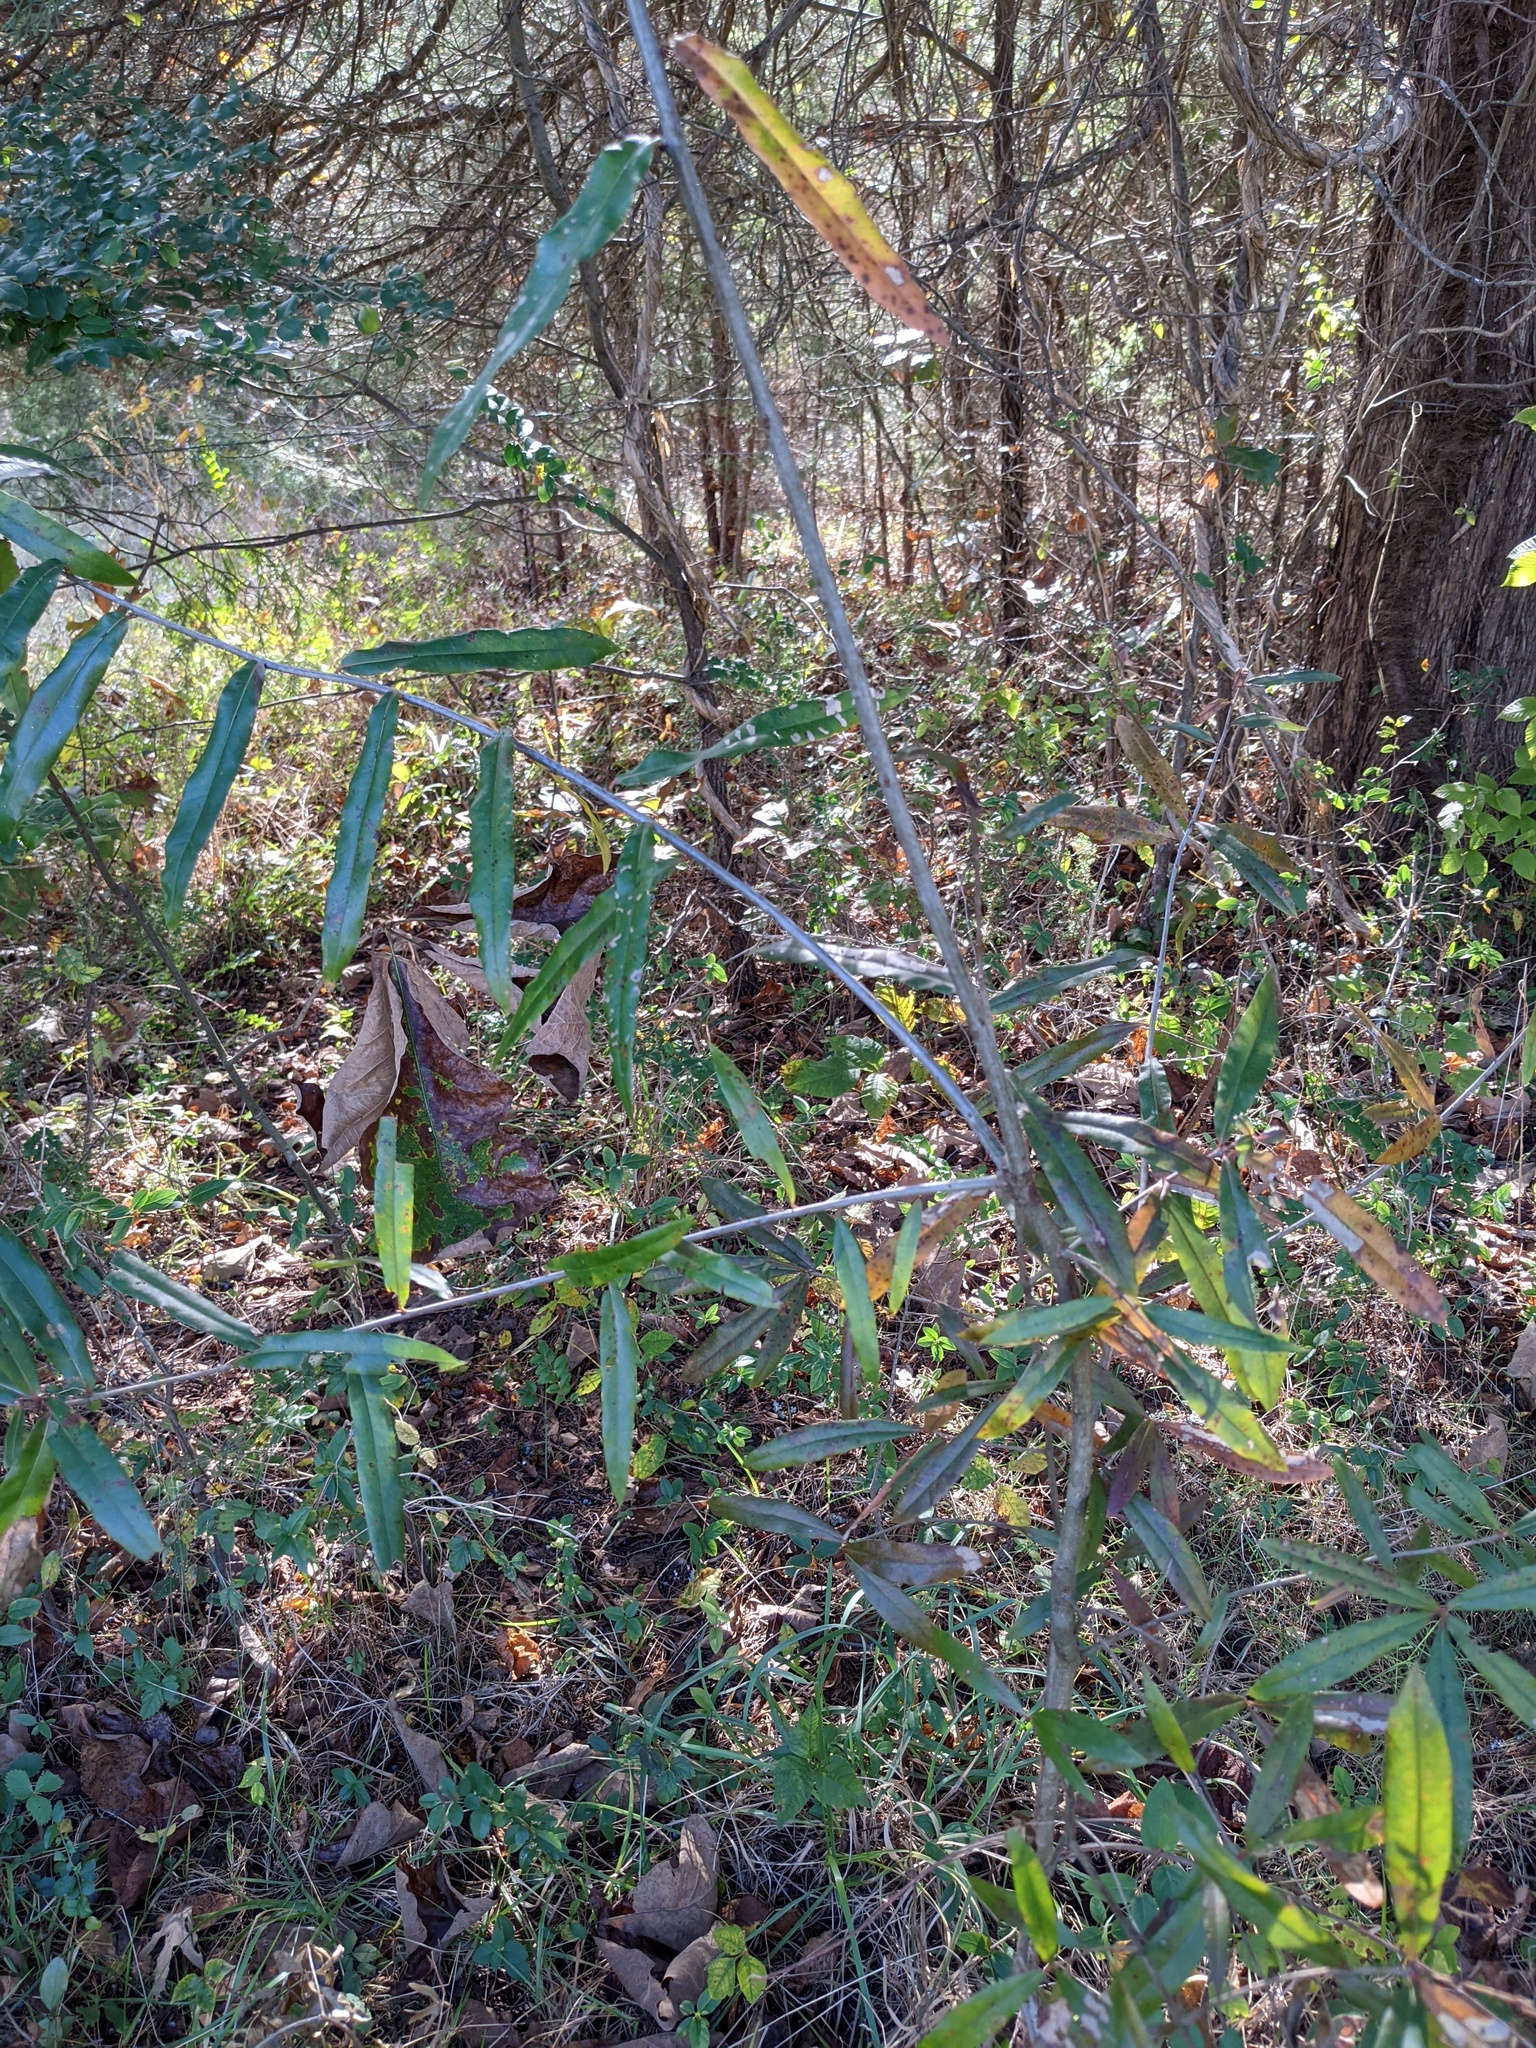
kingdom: Plantae
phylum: Tracheophyta
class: Magnoliopsida
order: Fagales
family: Fagaceae
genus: Quercus
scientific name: Quercus phellos
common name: Willow oak
